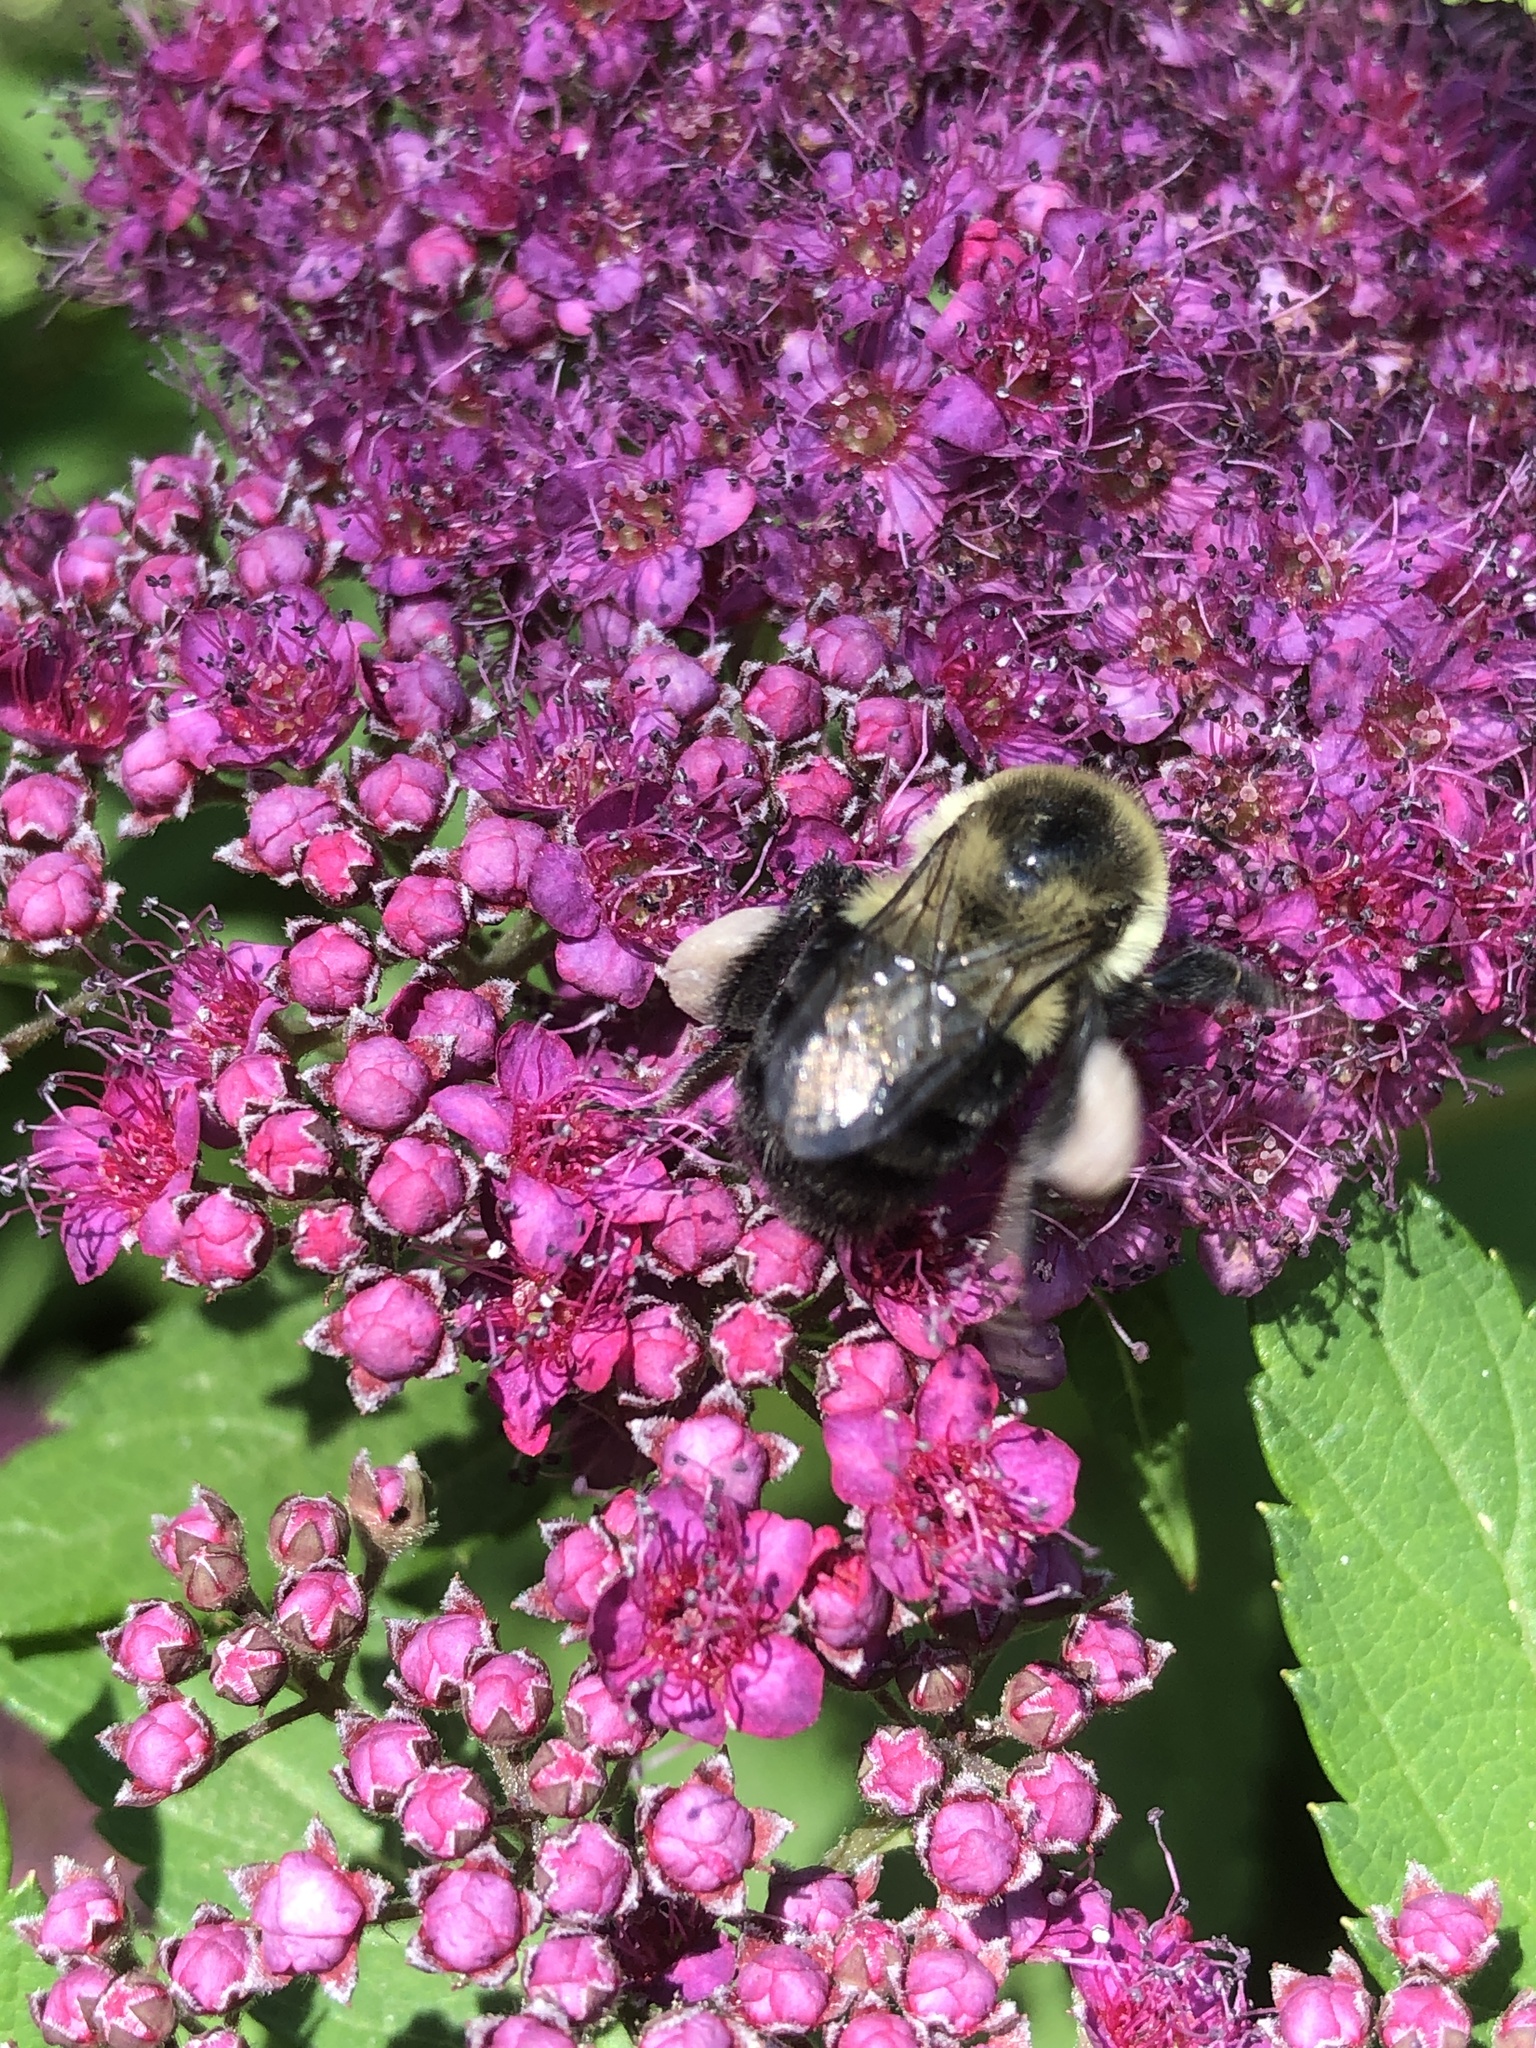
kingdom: Animalia
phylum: Arthropoda
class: Insecta
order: Hymenoptera
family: Apidae
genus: Bombus
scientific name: Bombus impatiens
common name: Common eastern bumble bee
